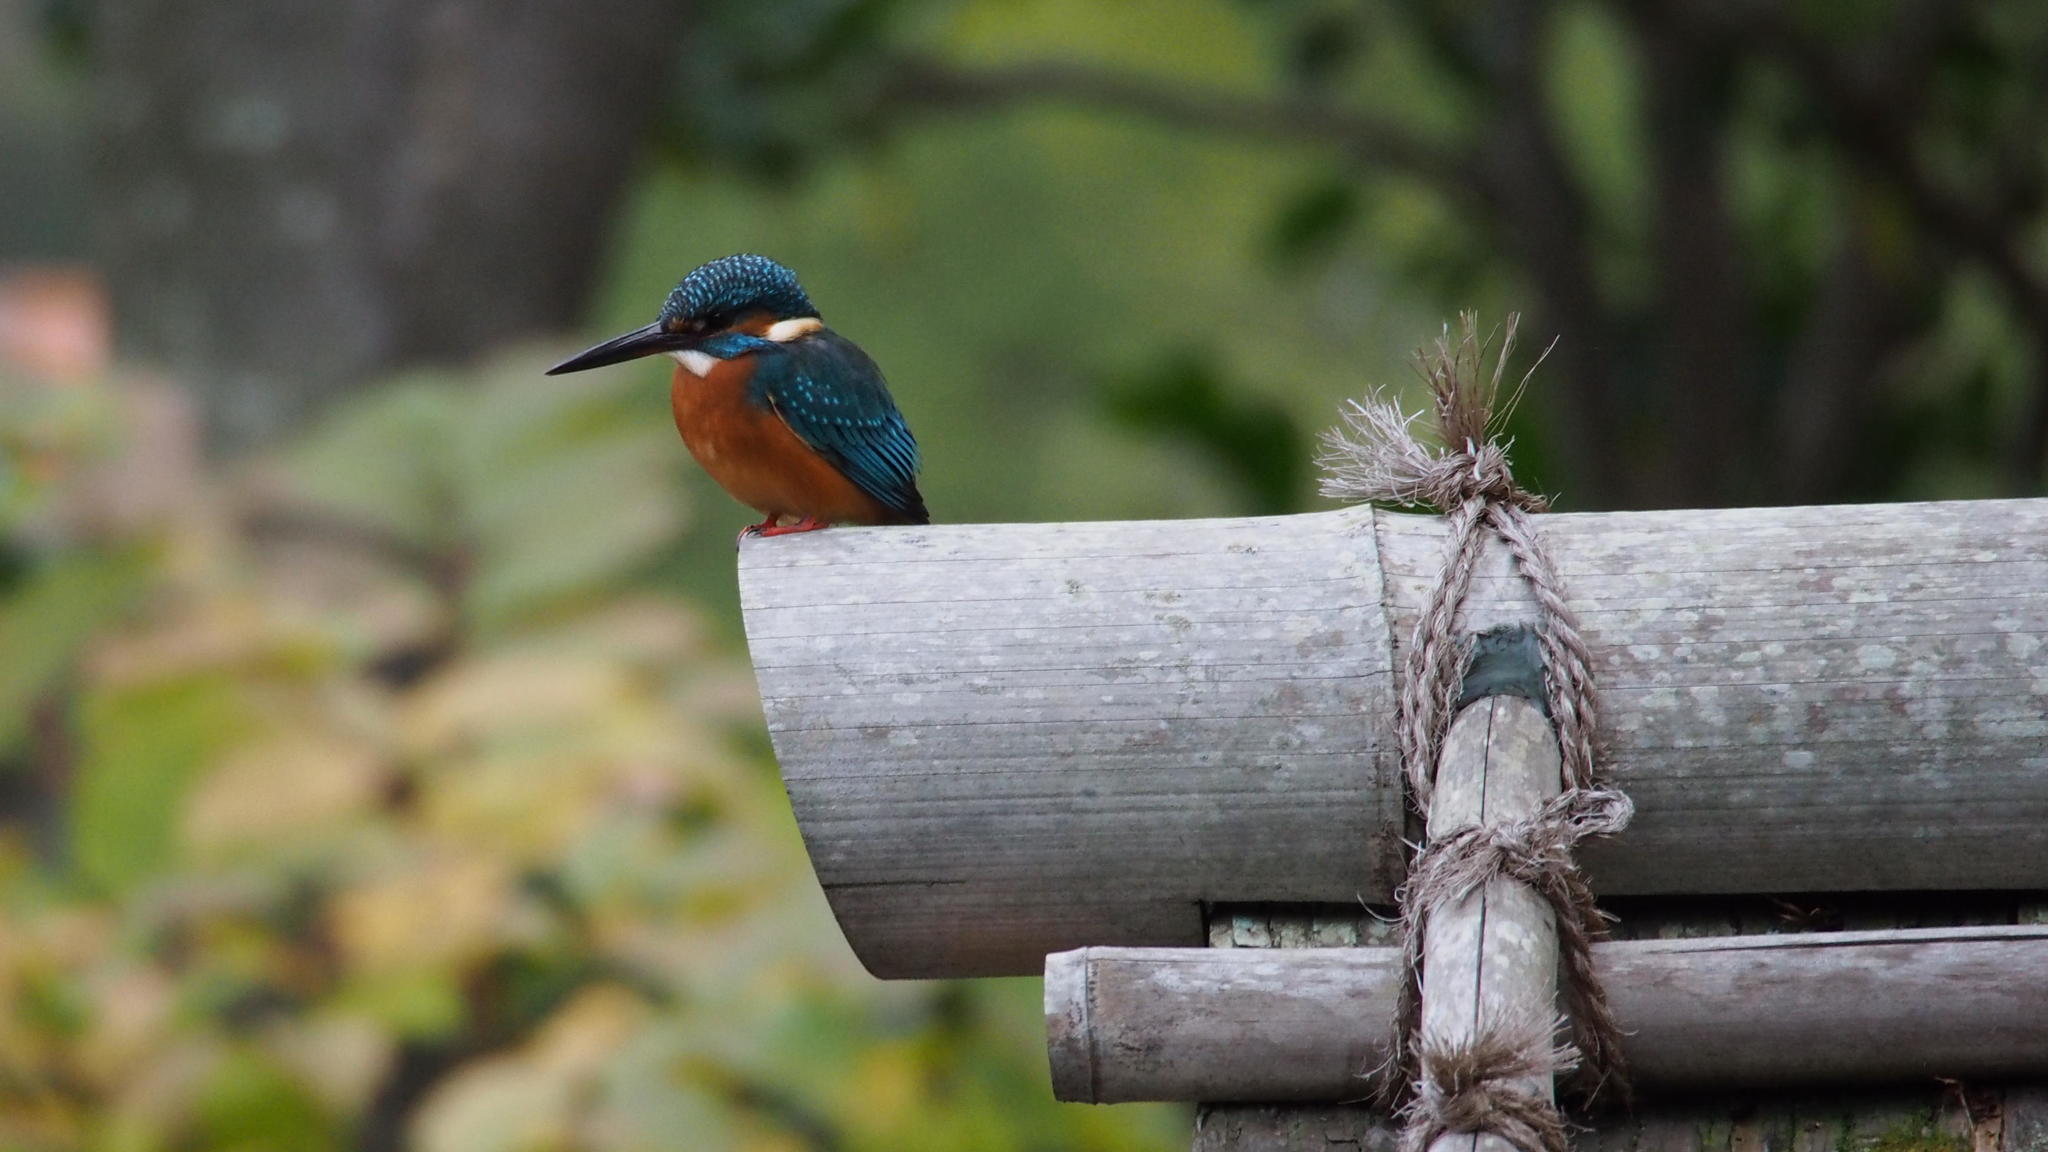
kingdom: Animalia
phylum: Chordata
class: Aves
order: Coraciiformes
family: Alcedinidae
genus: Alcedo
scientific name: Alcedo atthis
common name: Common kingfisher
